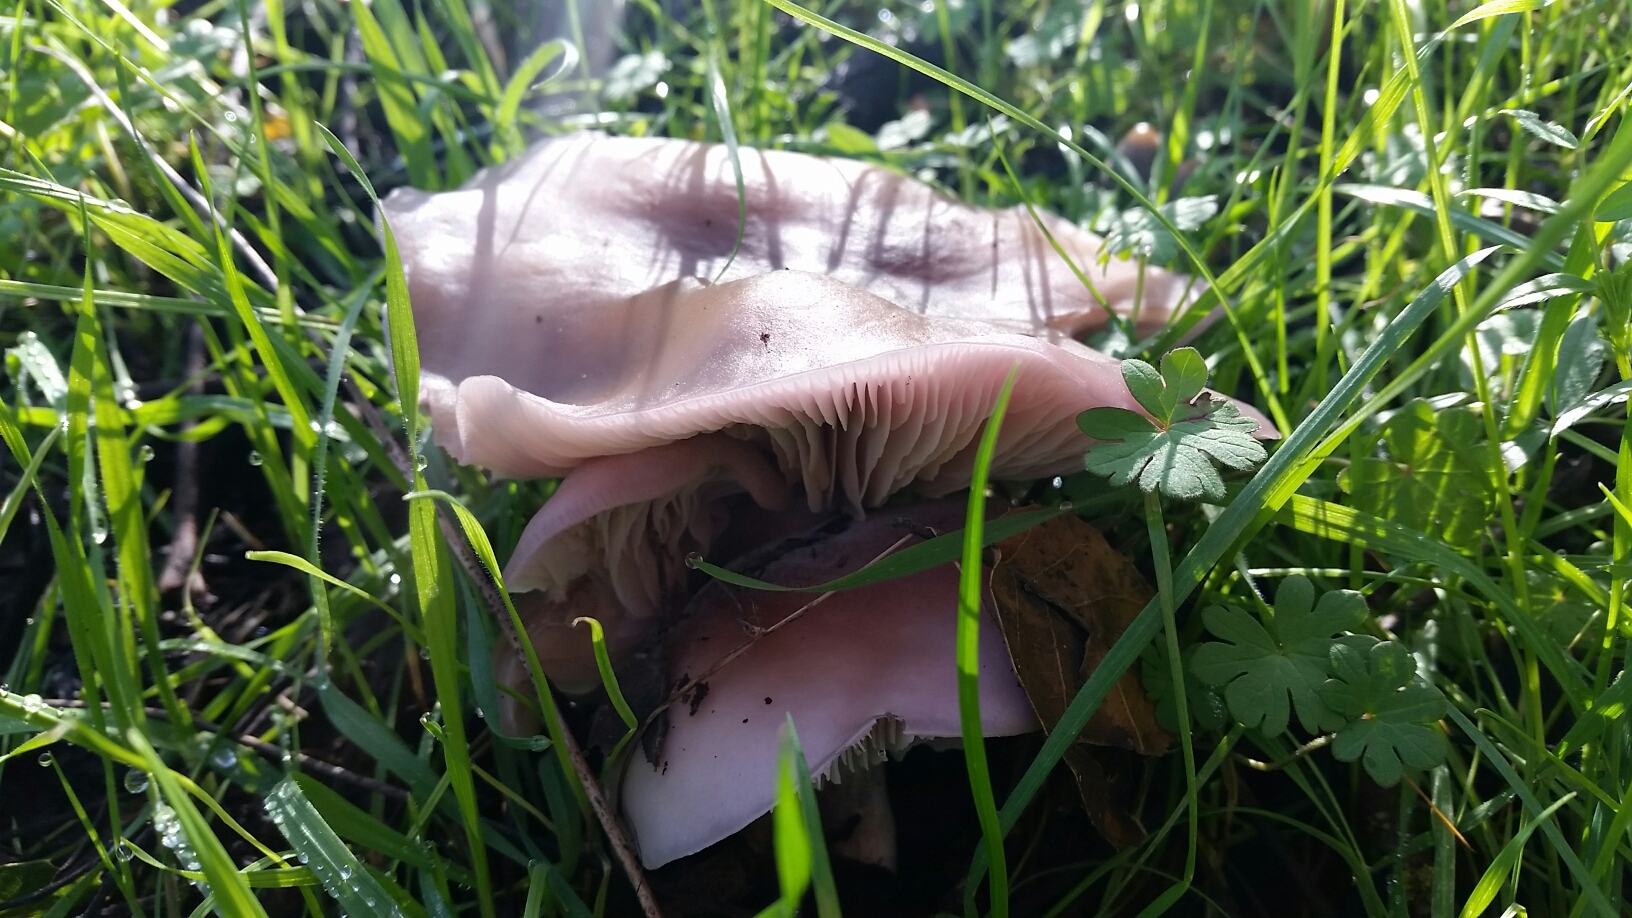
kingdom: Fungi
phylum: Basidiomycota
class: Agaricomycetes
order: Agaricales
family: Tricholomataceae
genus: Collybia
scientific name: Collybia
